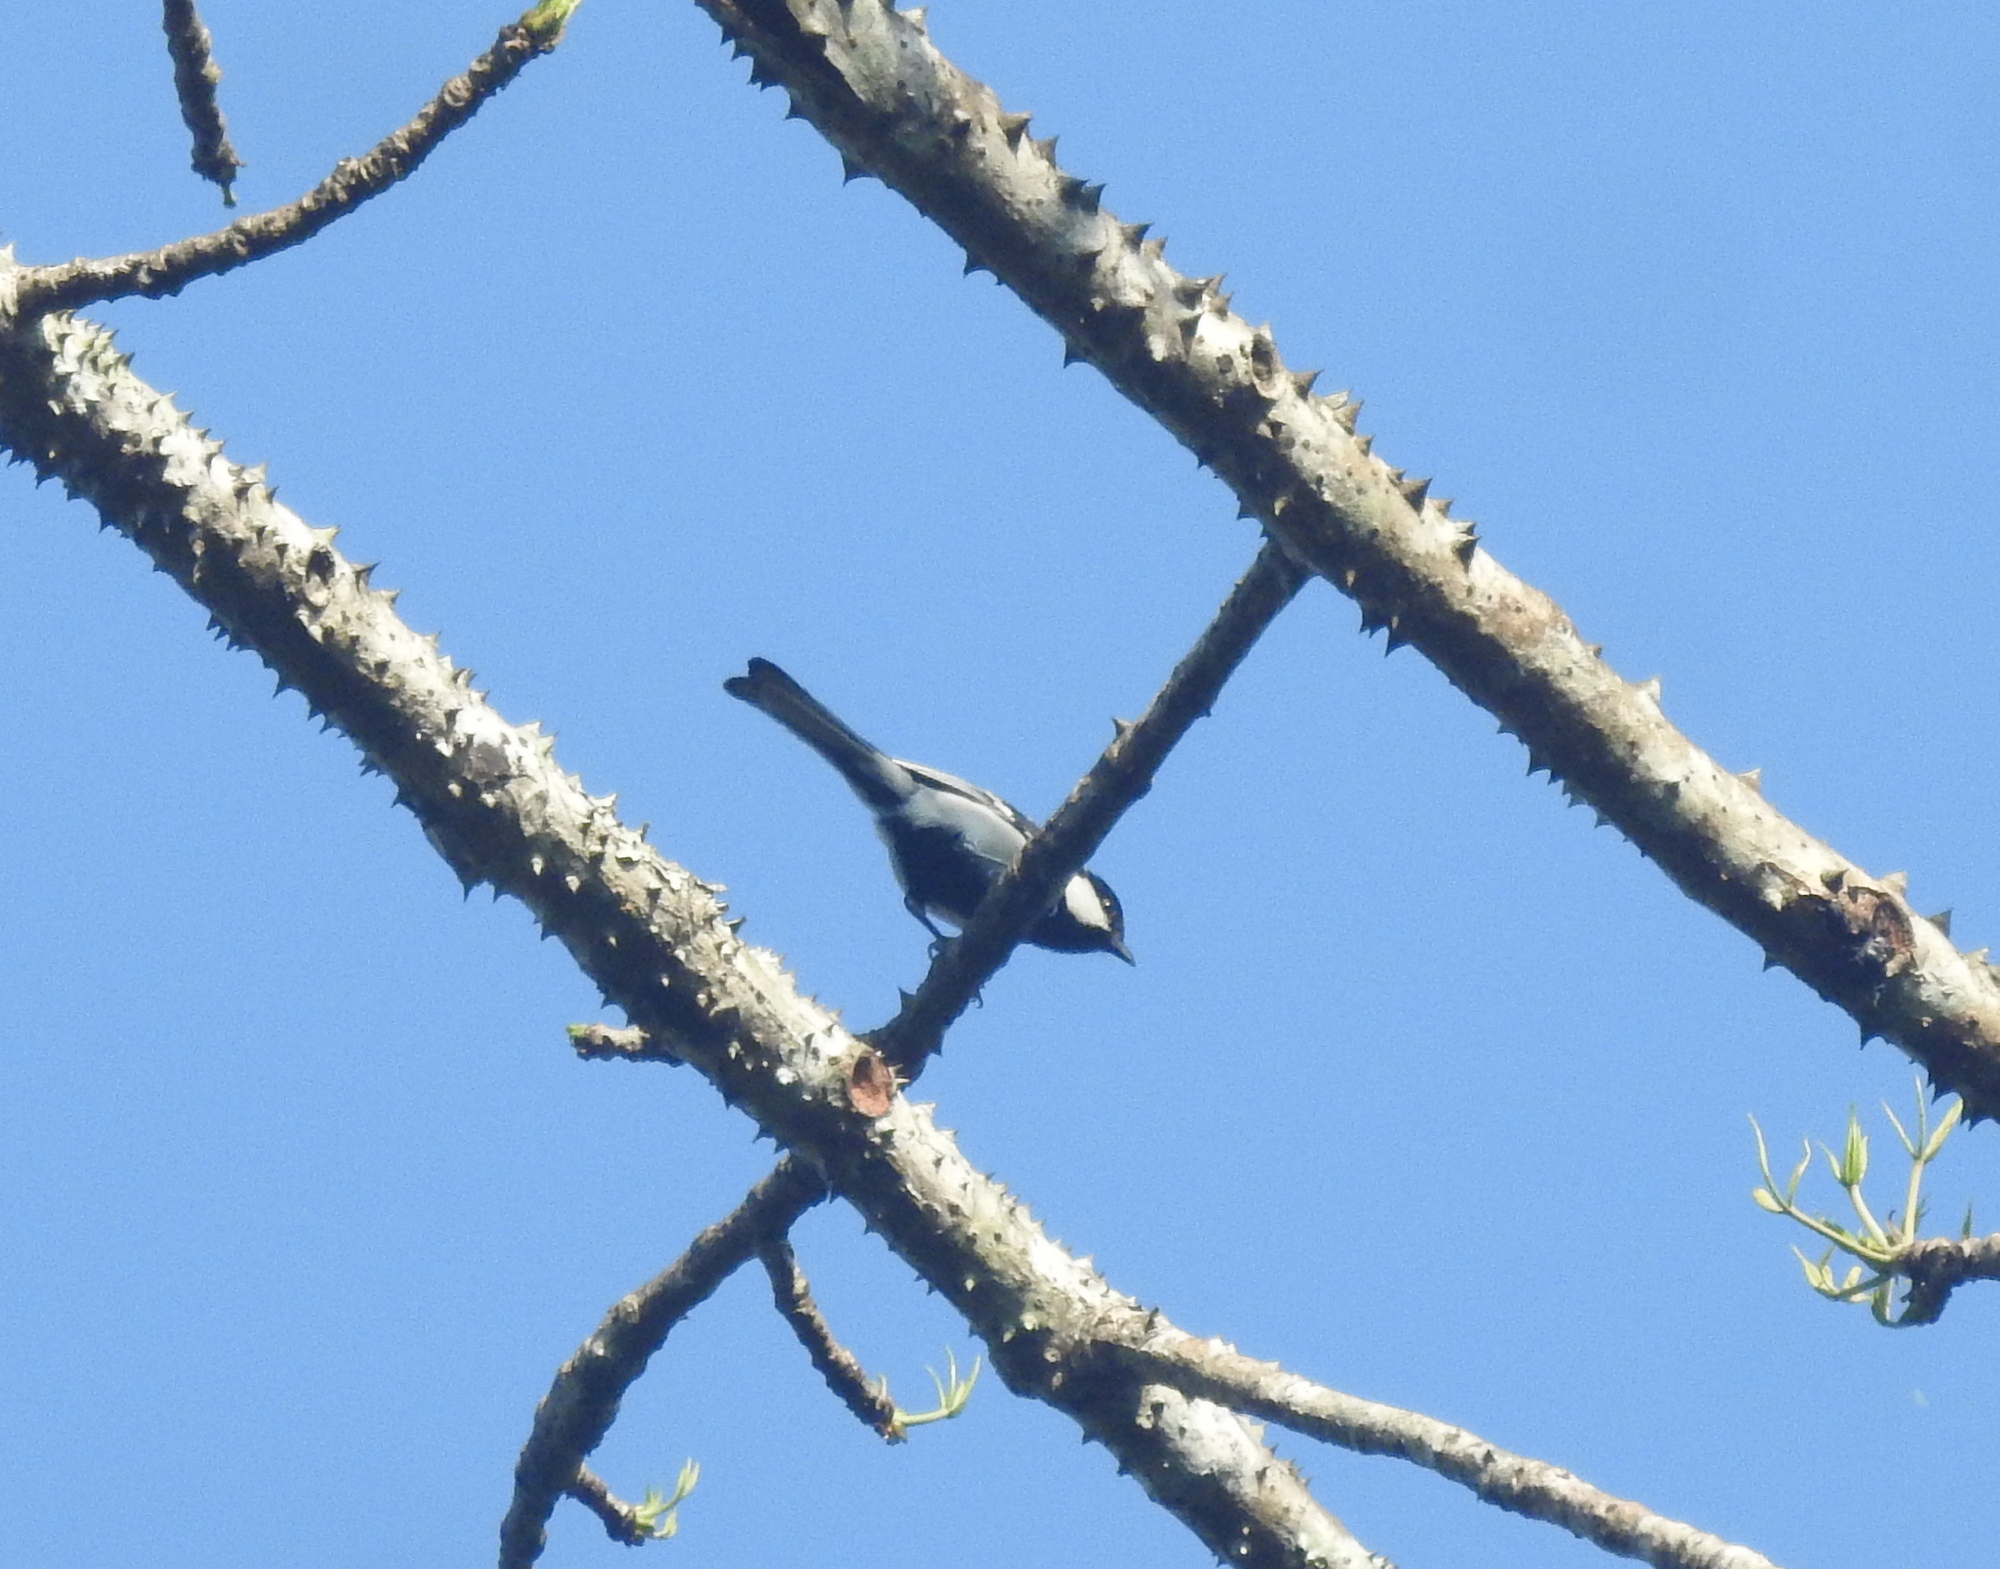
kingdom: Animalia
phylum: Chordata
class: Aves
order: Passeriformes
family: Paridae
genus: Parus
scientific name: Parus cinereus
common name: Cinereous tit
